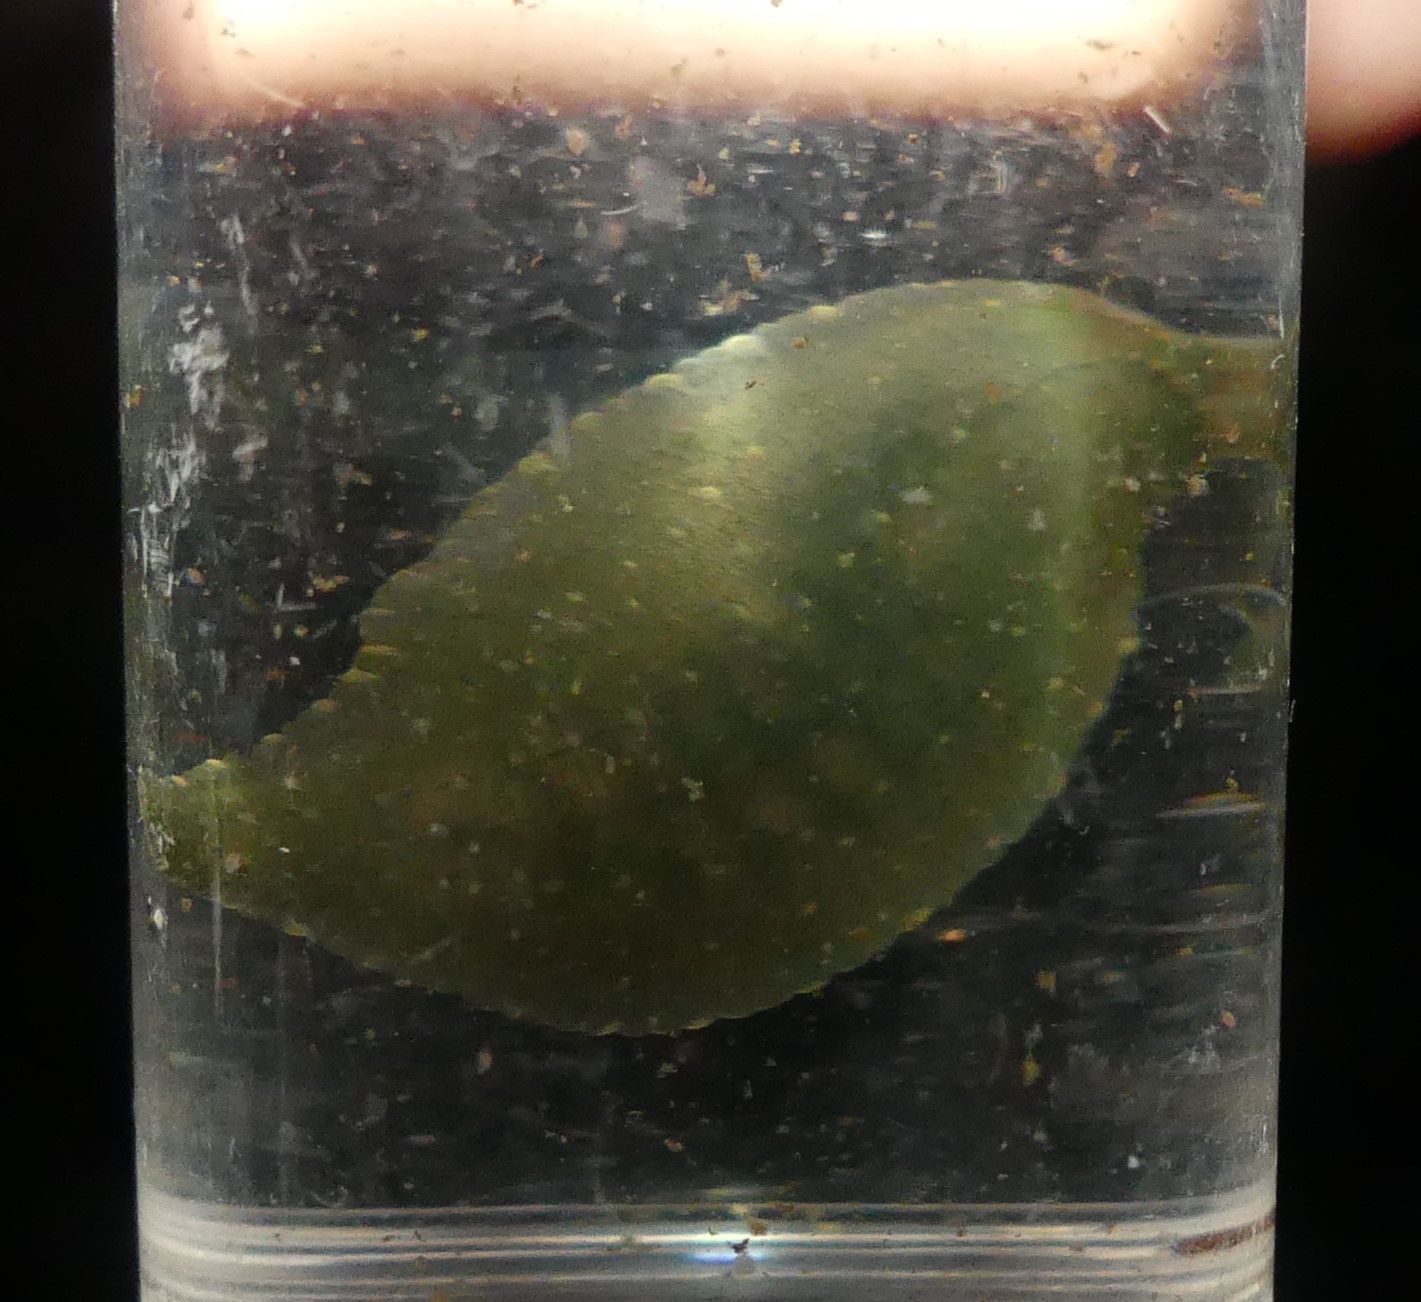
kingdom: Animalia
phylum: Annelida
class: Clitellata
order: Rhynchobdellida
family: Glossiphoniidae
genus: Theromyzon
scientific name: Theromyzon tessulatum
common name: Duck leech
